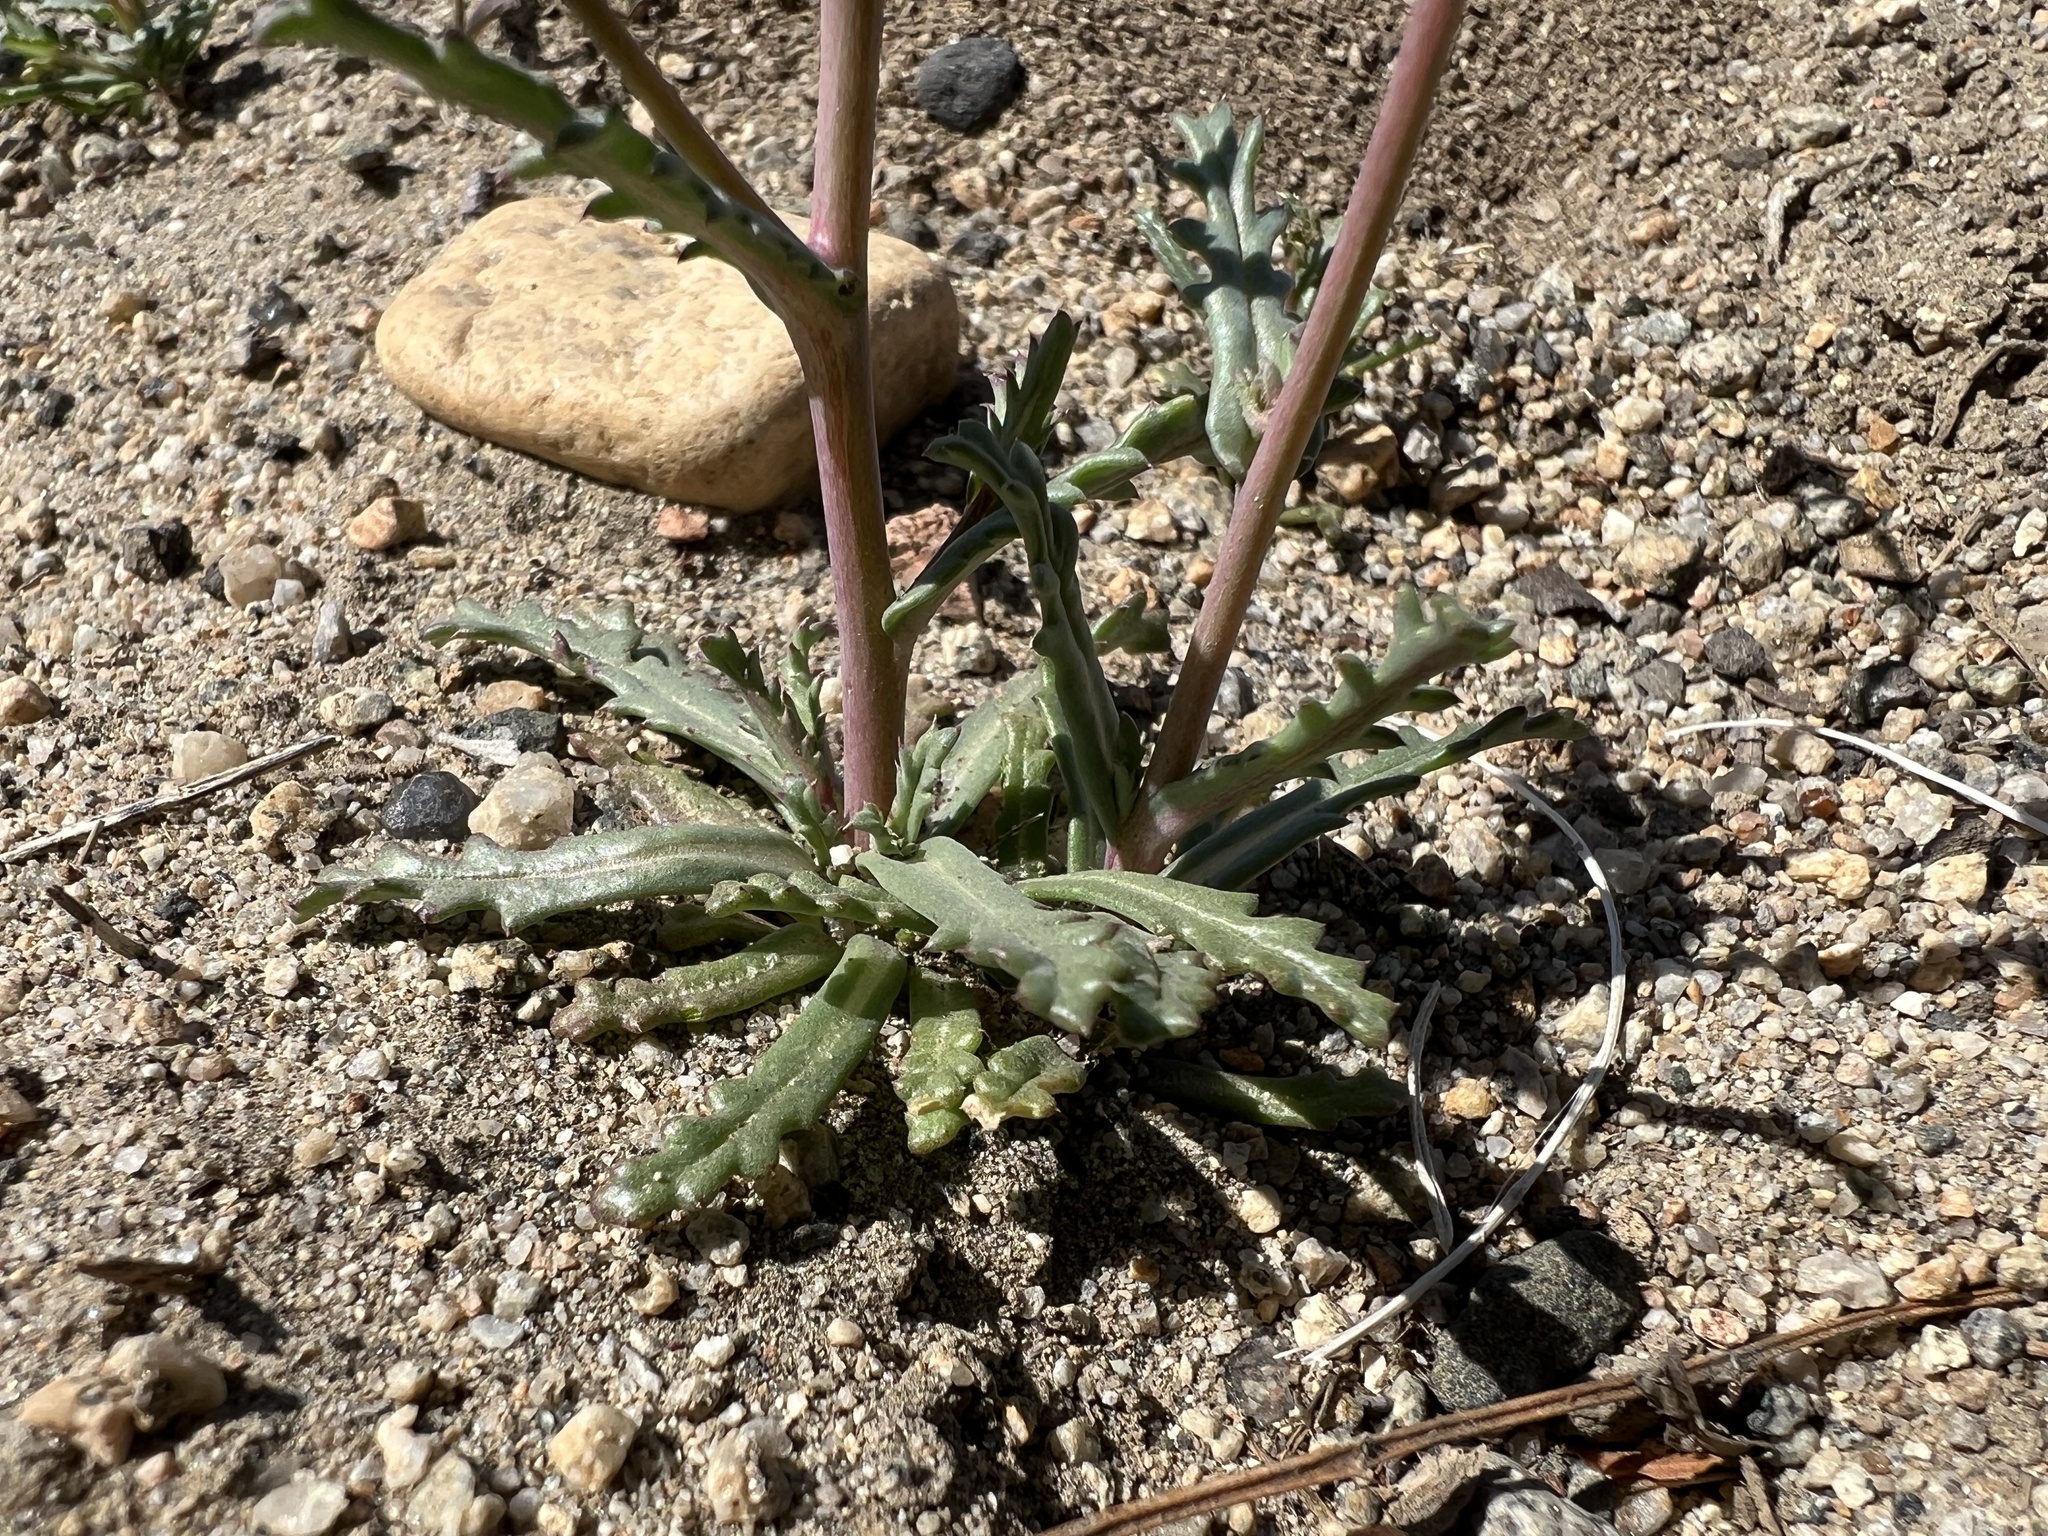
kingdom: Plantae
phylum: Tracheophyta
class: Magnoliopsida
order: Ericales
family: Polemoniaceae
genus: Gilia
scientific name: Gilia sinuata
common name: Rosy gilia
